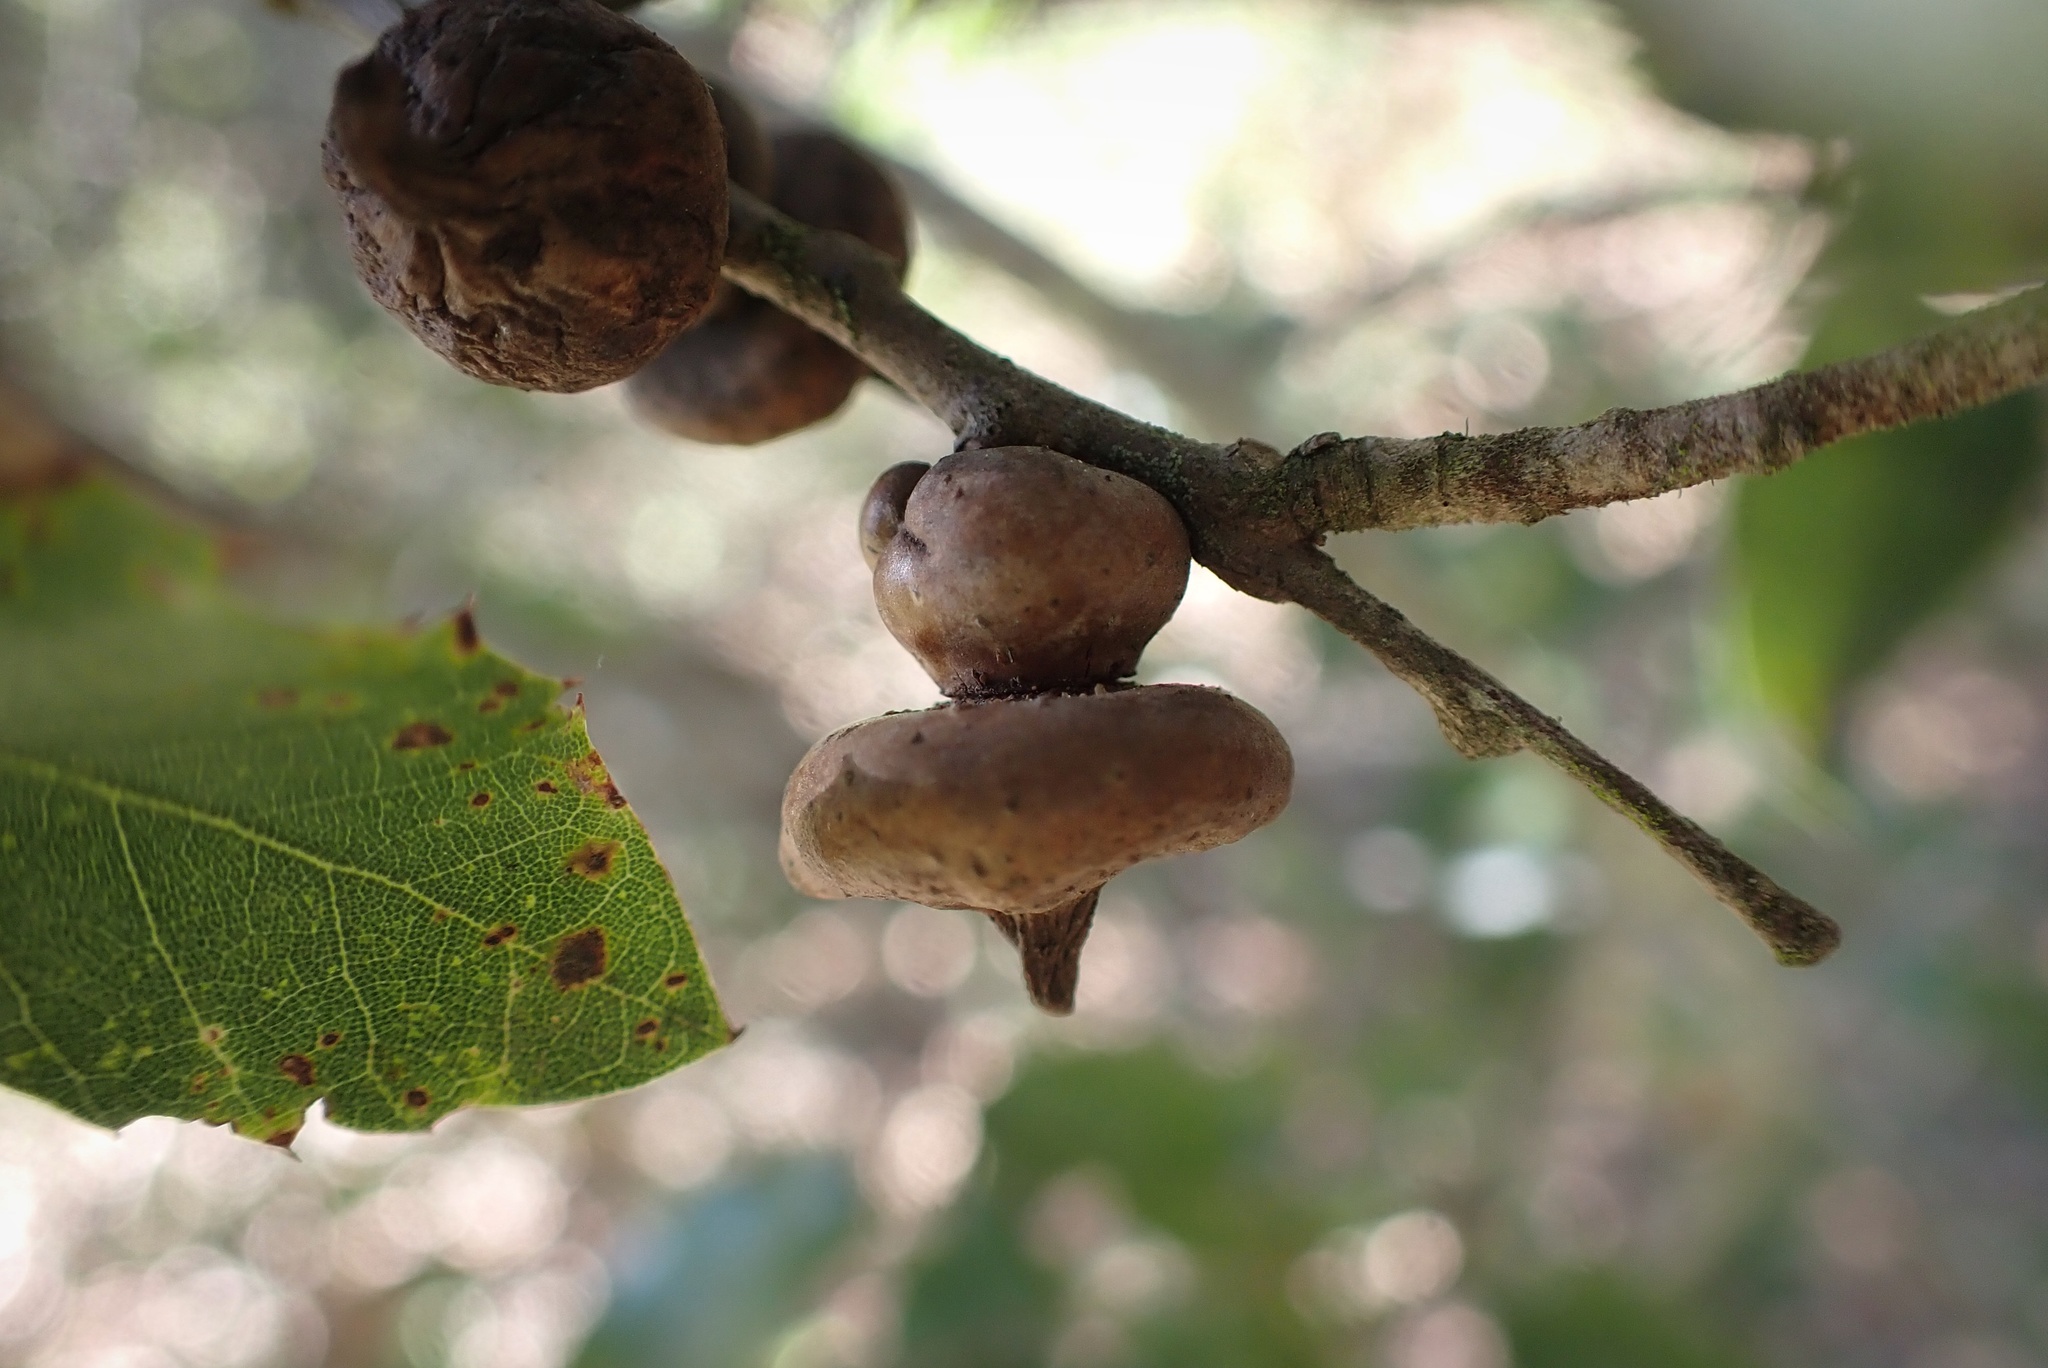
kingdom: Animalia
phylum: Arthropoda
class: Insecta
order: Hymenoptera
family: Cynipidae
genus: Heteroecus
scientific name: Heteroecus
